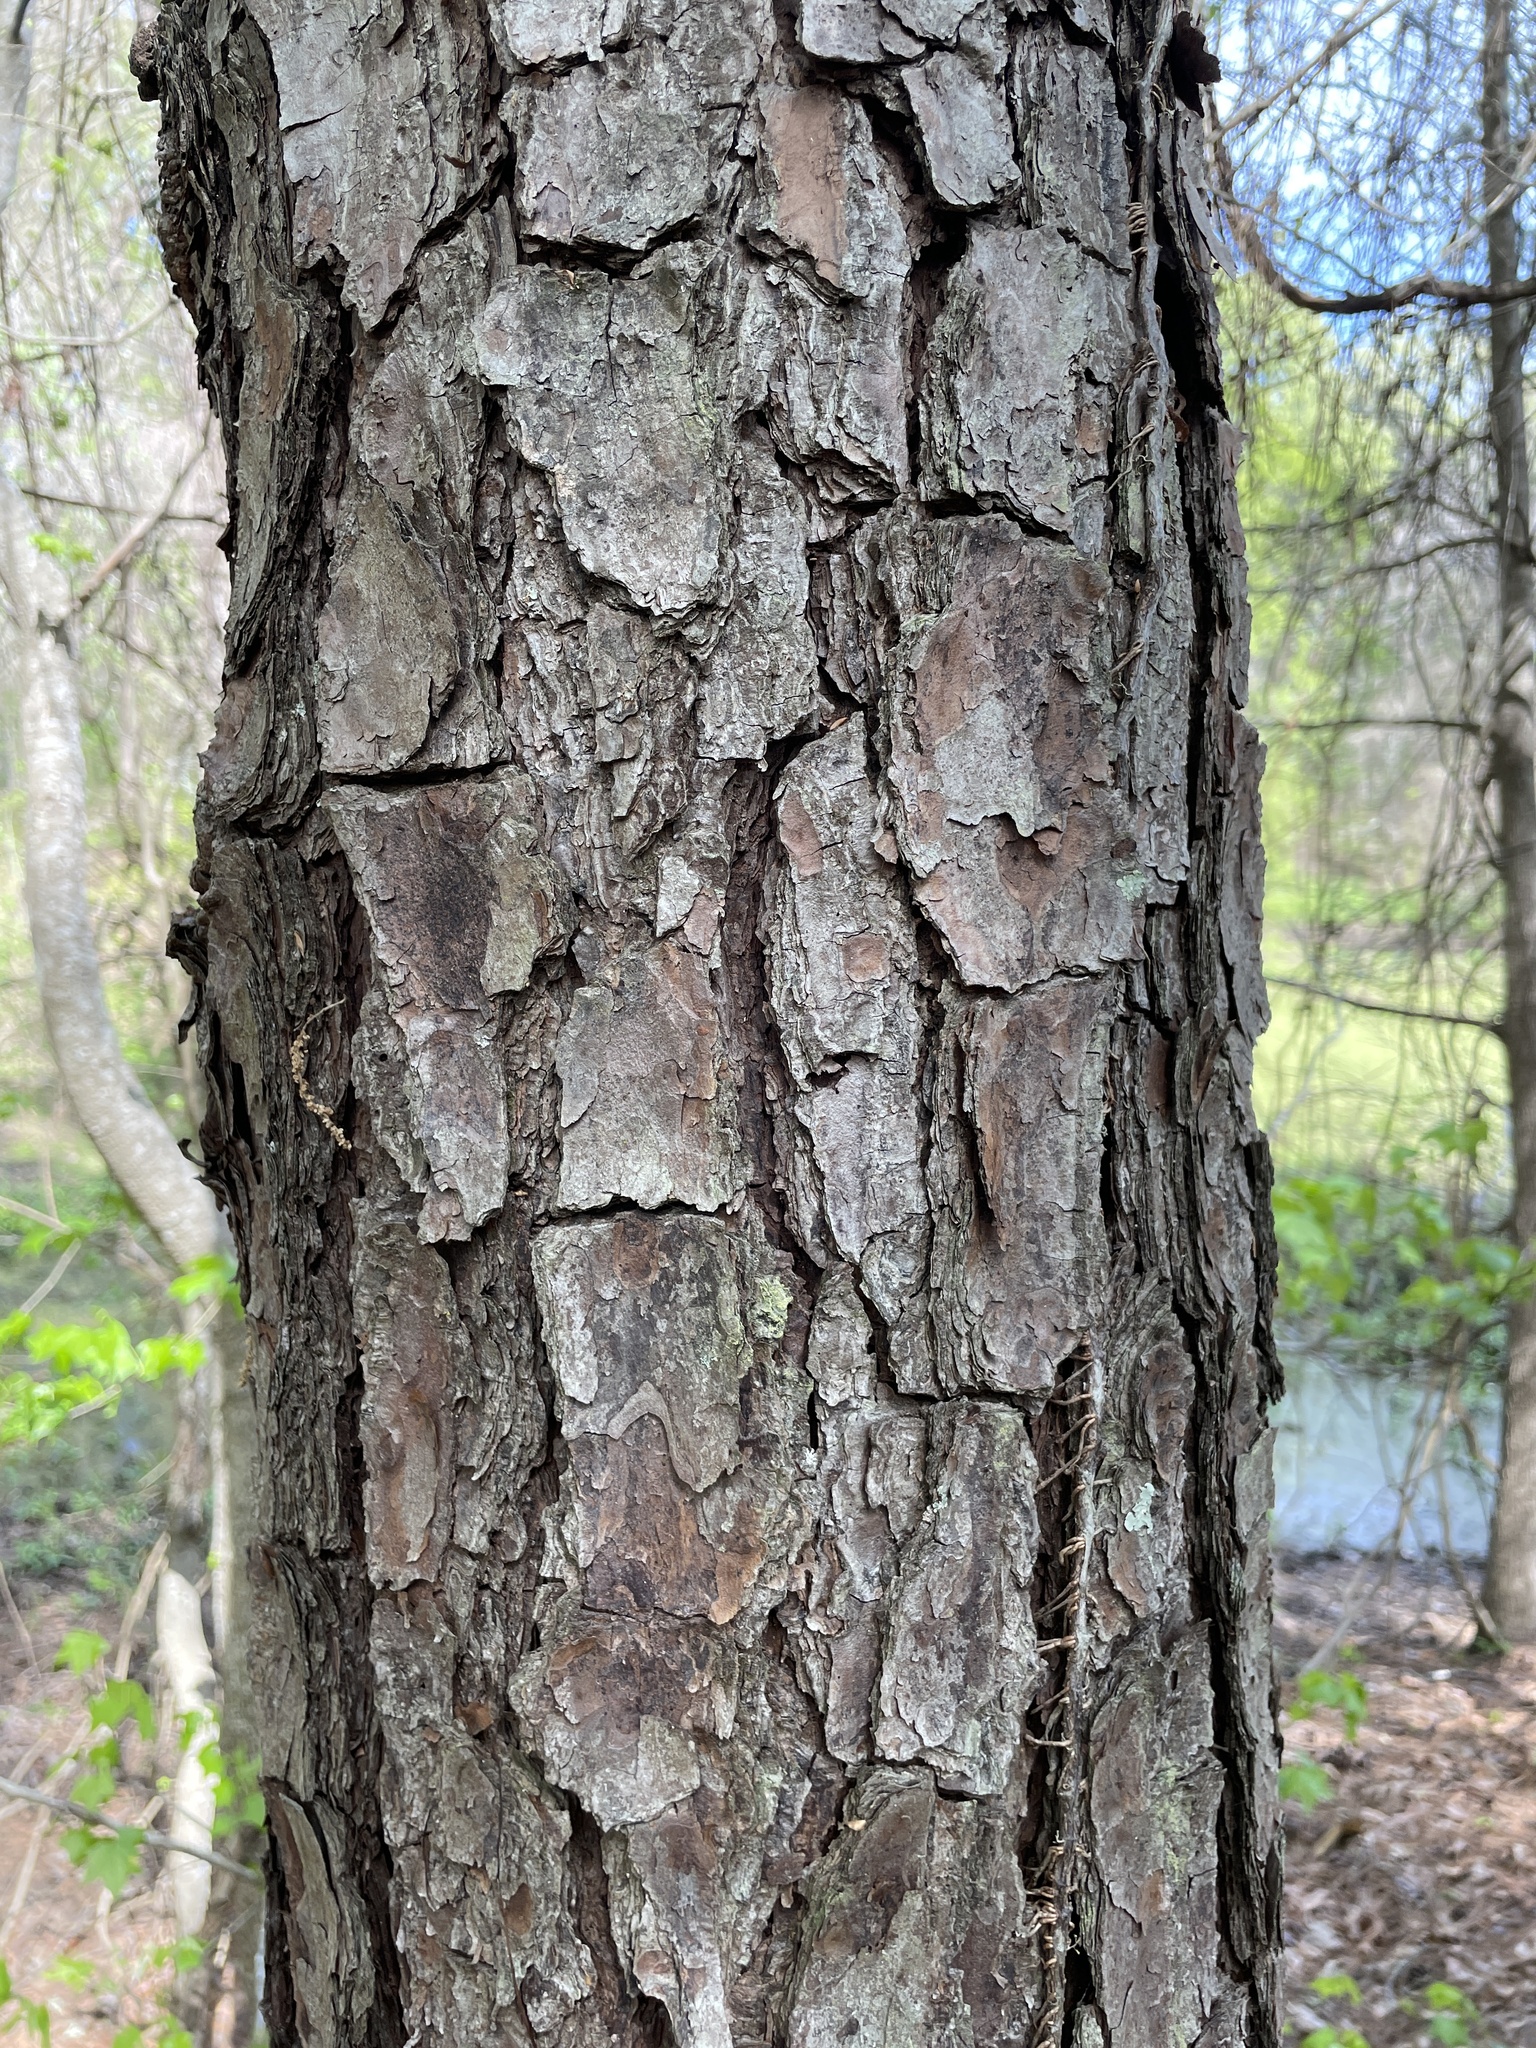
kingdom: Plantae
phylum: Tracheophyta
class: Pinopsida
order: Pinales
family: Pinaceae
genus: Pinus
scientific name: Pinus taeda
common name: Loblolly pine
